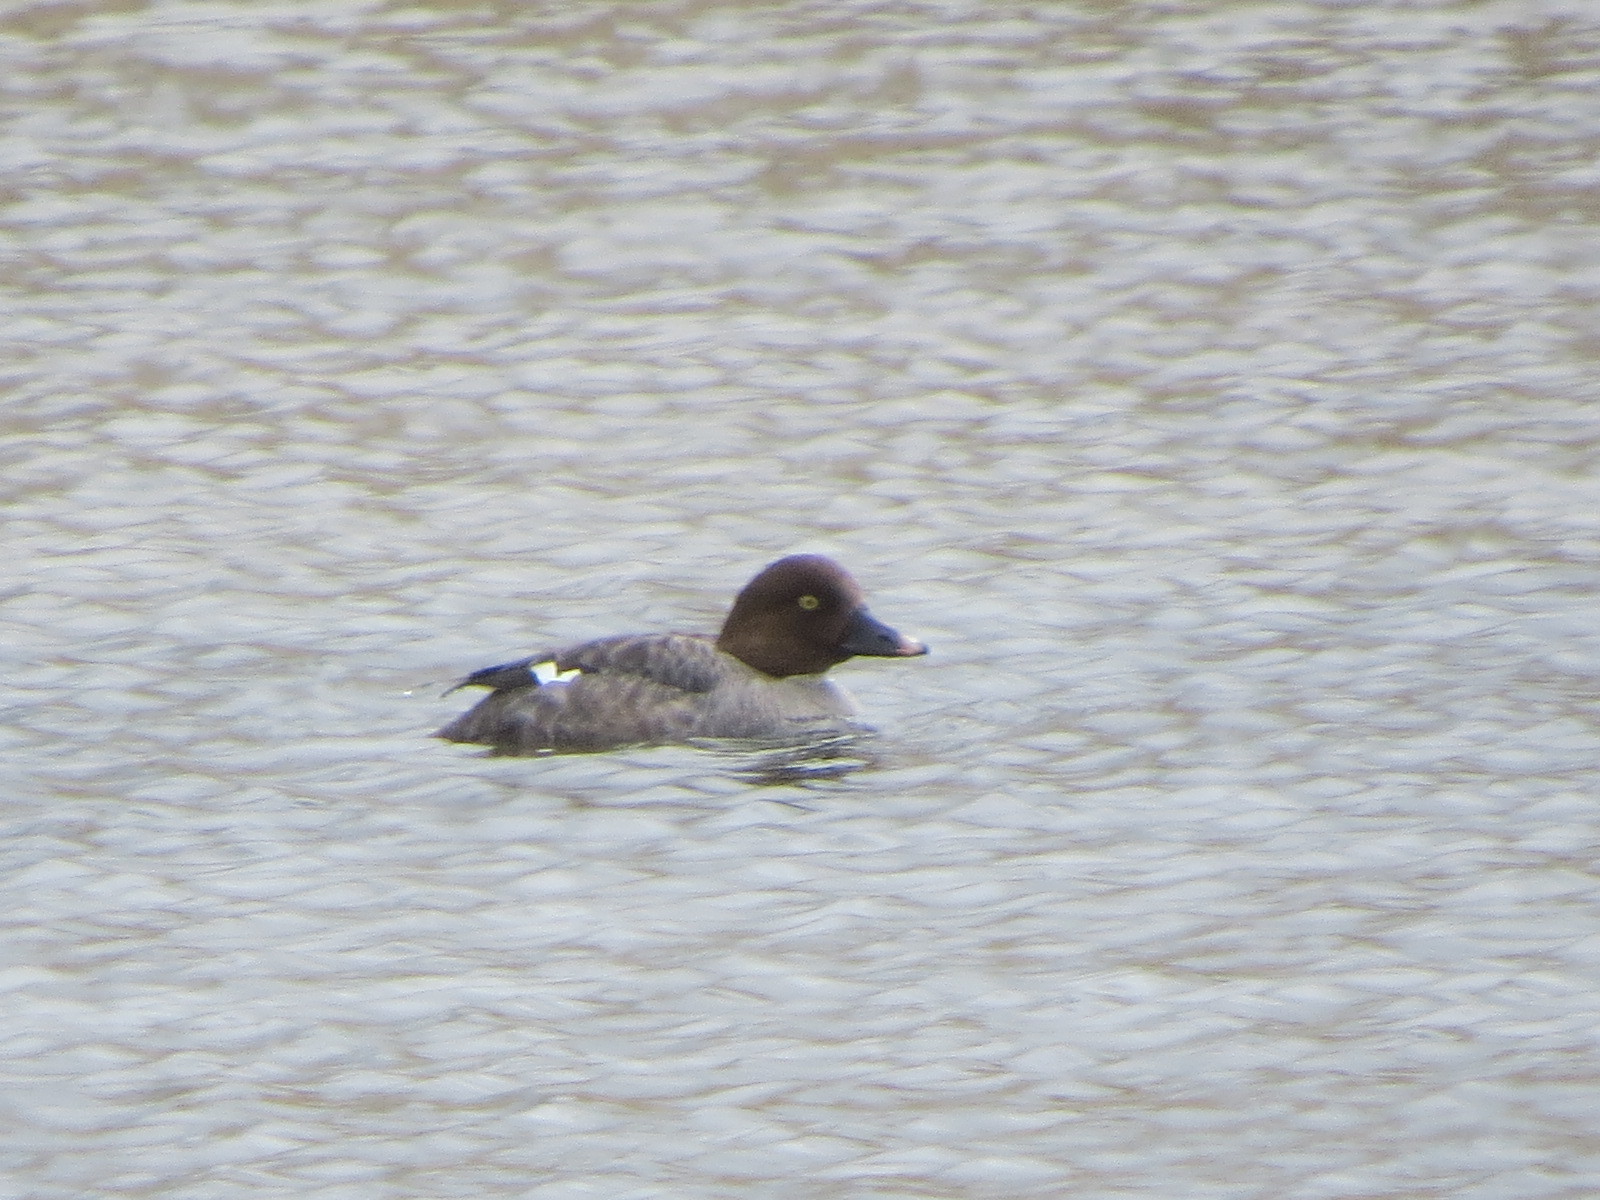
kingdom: Animalia
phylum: Chordata
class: Aves
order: Anseriformes
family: Anatidae
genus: Bucephala
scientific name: Bucephala clangula
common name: Common goldeneye
